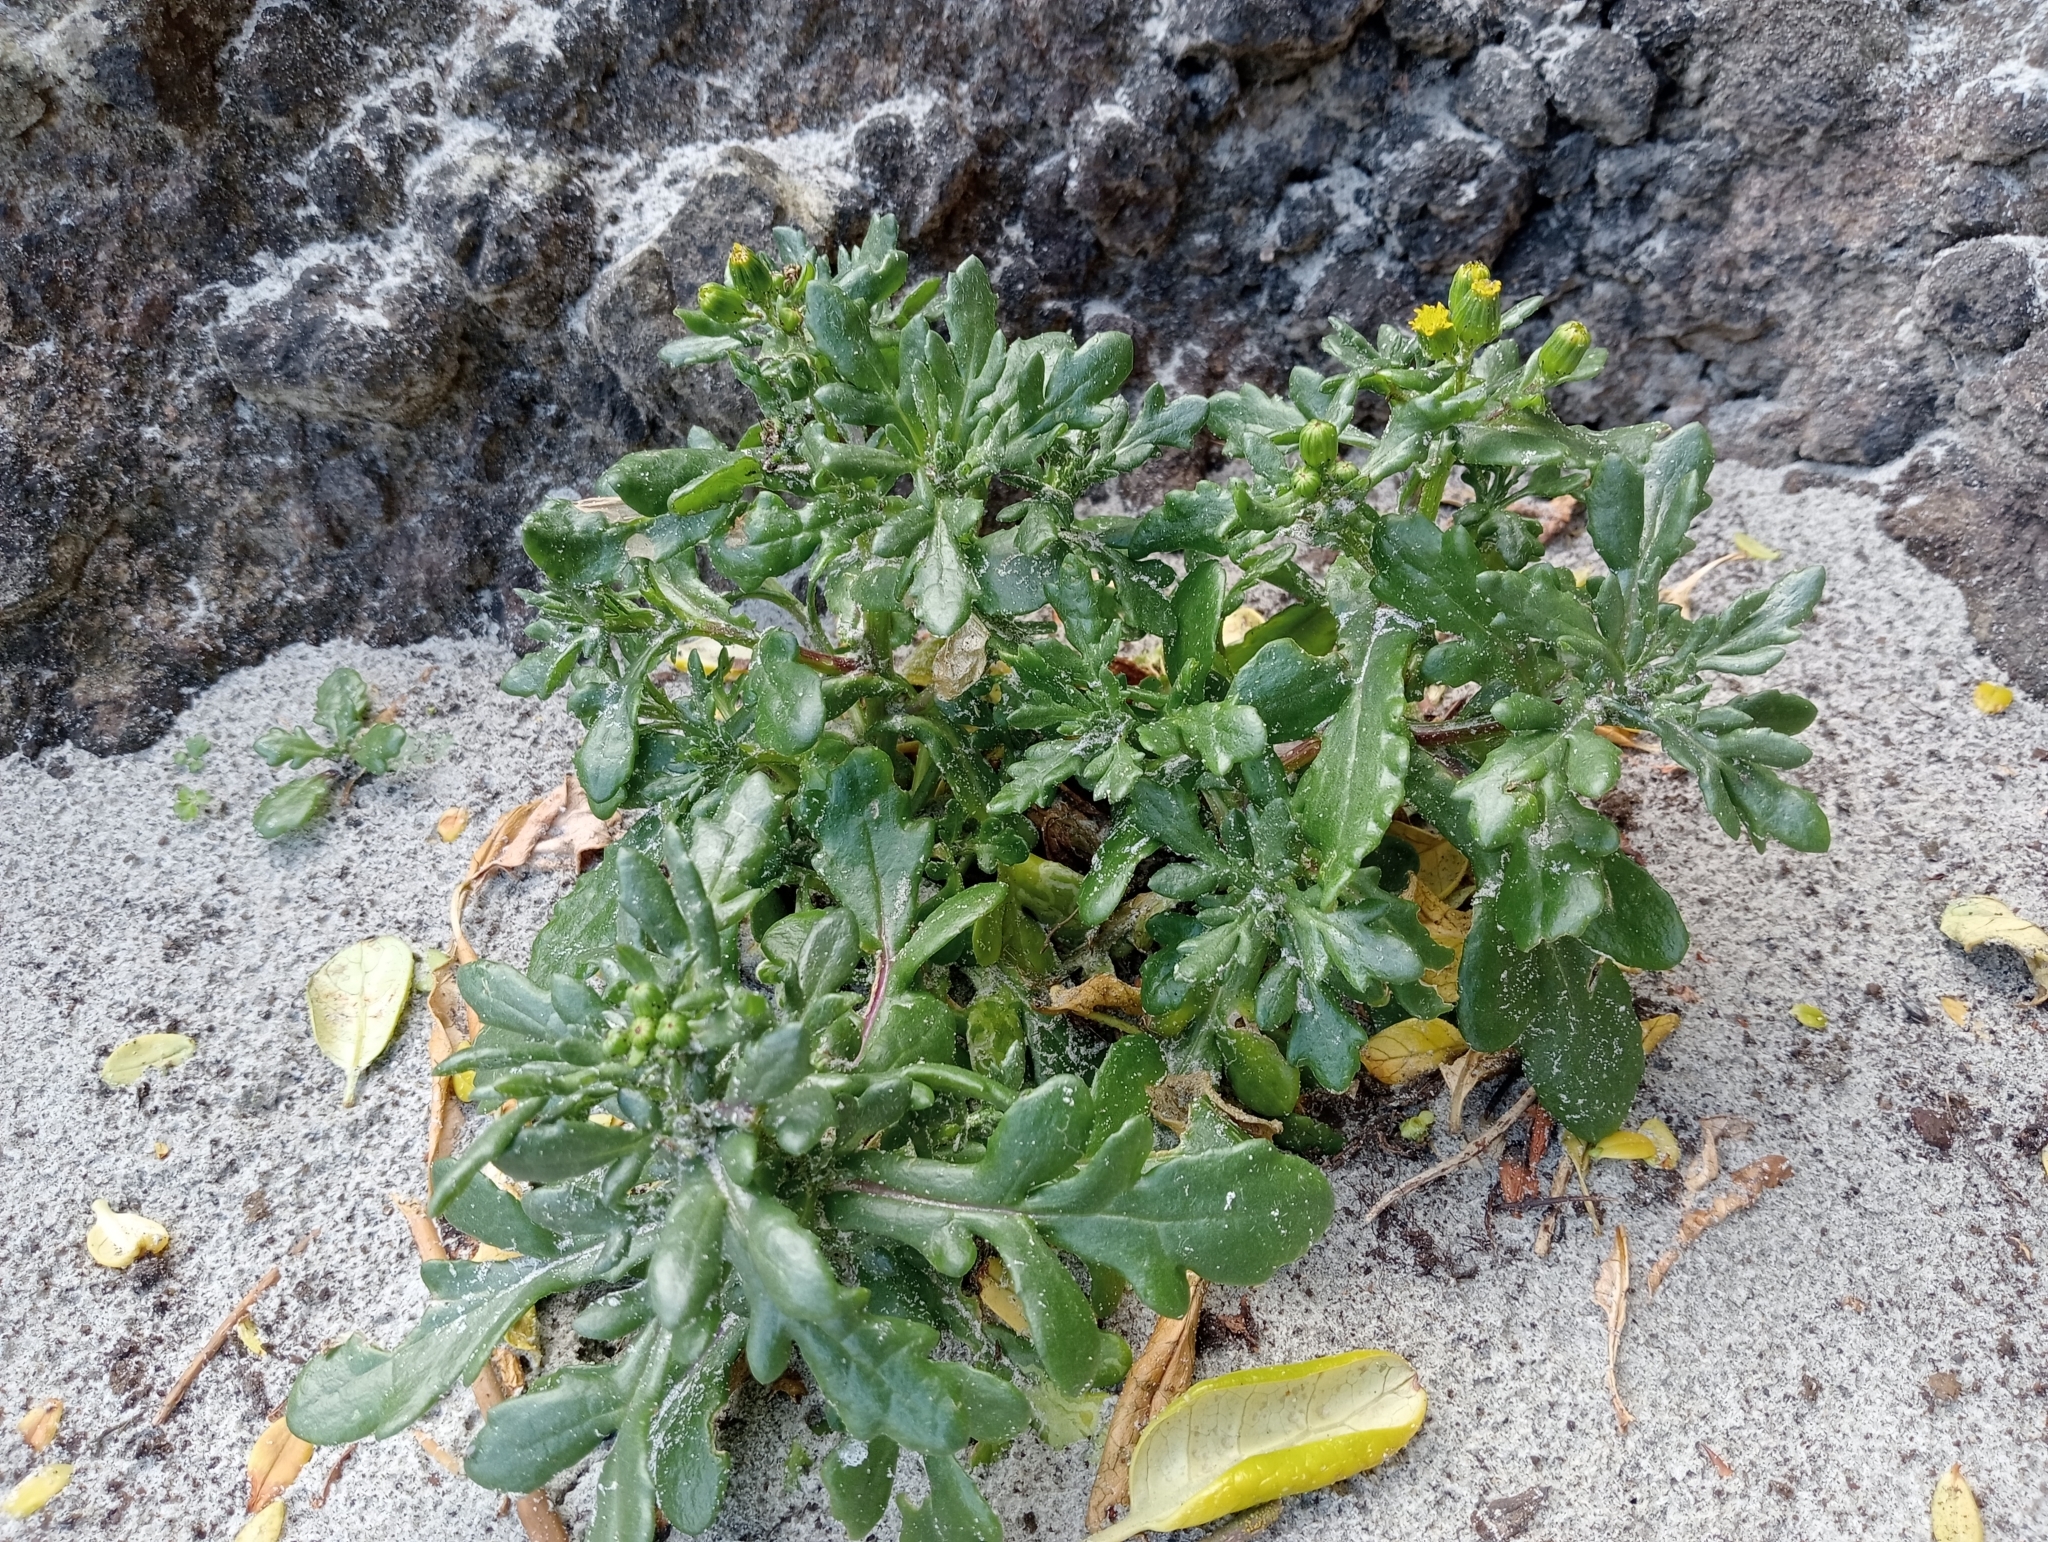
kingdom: Plantae
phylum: Tracheophyta
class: Magnoliopsida
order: Asterales
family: Asteraceae
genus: Senecio
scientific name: Senecio carnosulus
